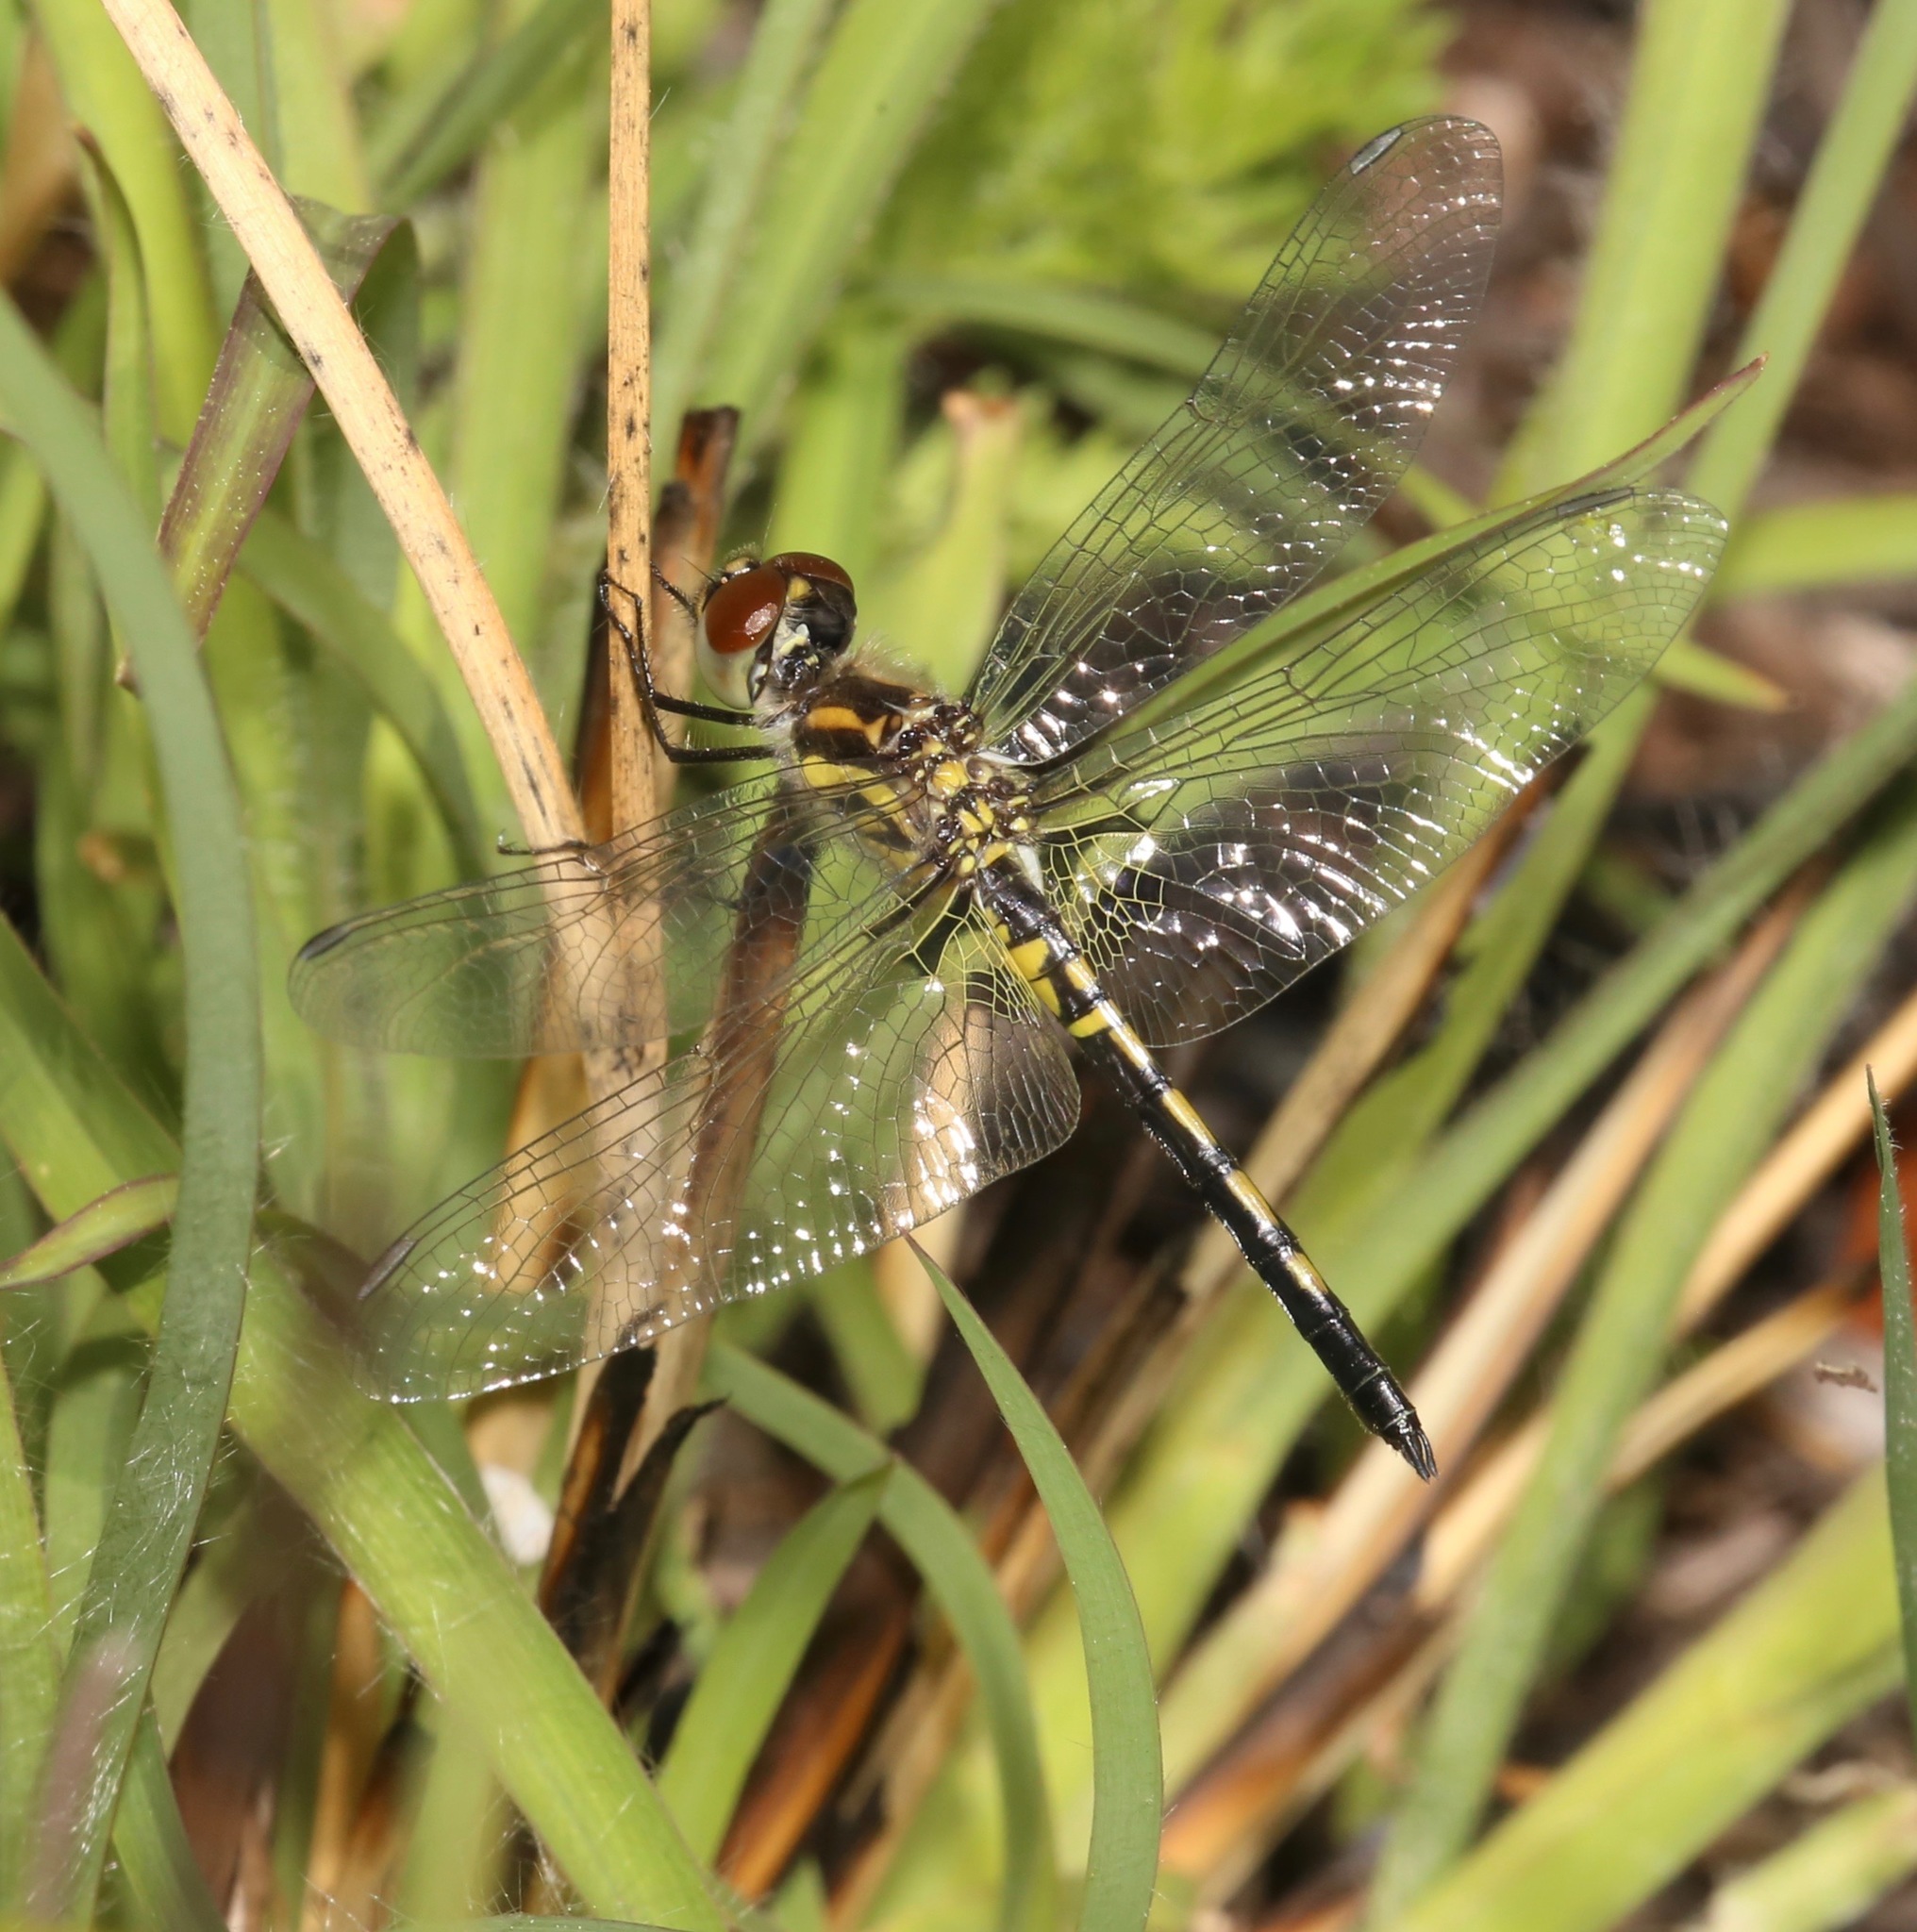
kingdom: Animalia
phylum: Arthropoda
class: Insecta
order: Odonata
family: Libellulidae
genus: Celithemis
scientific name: Celithemis ornata
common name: Ornate pennant
